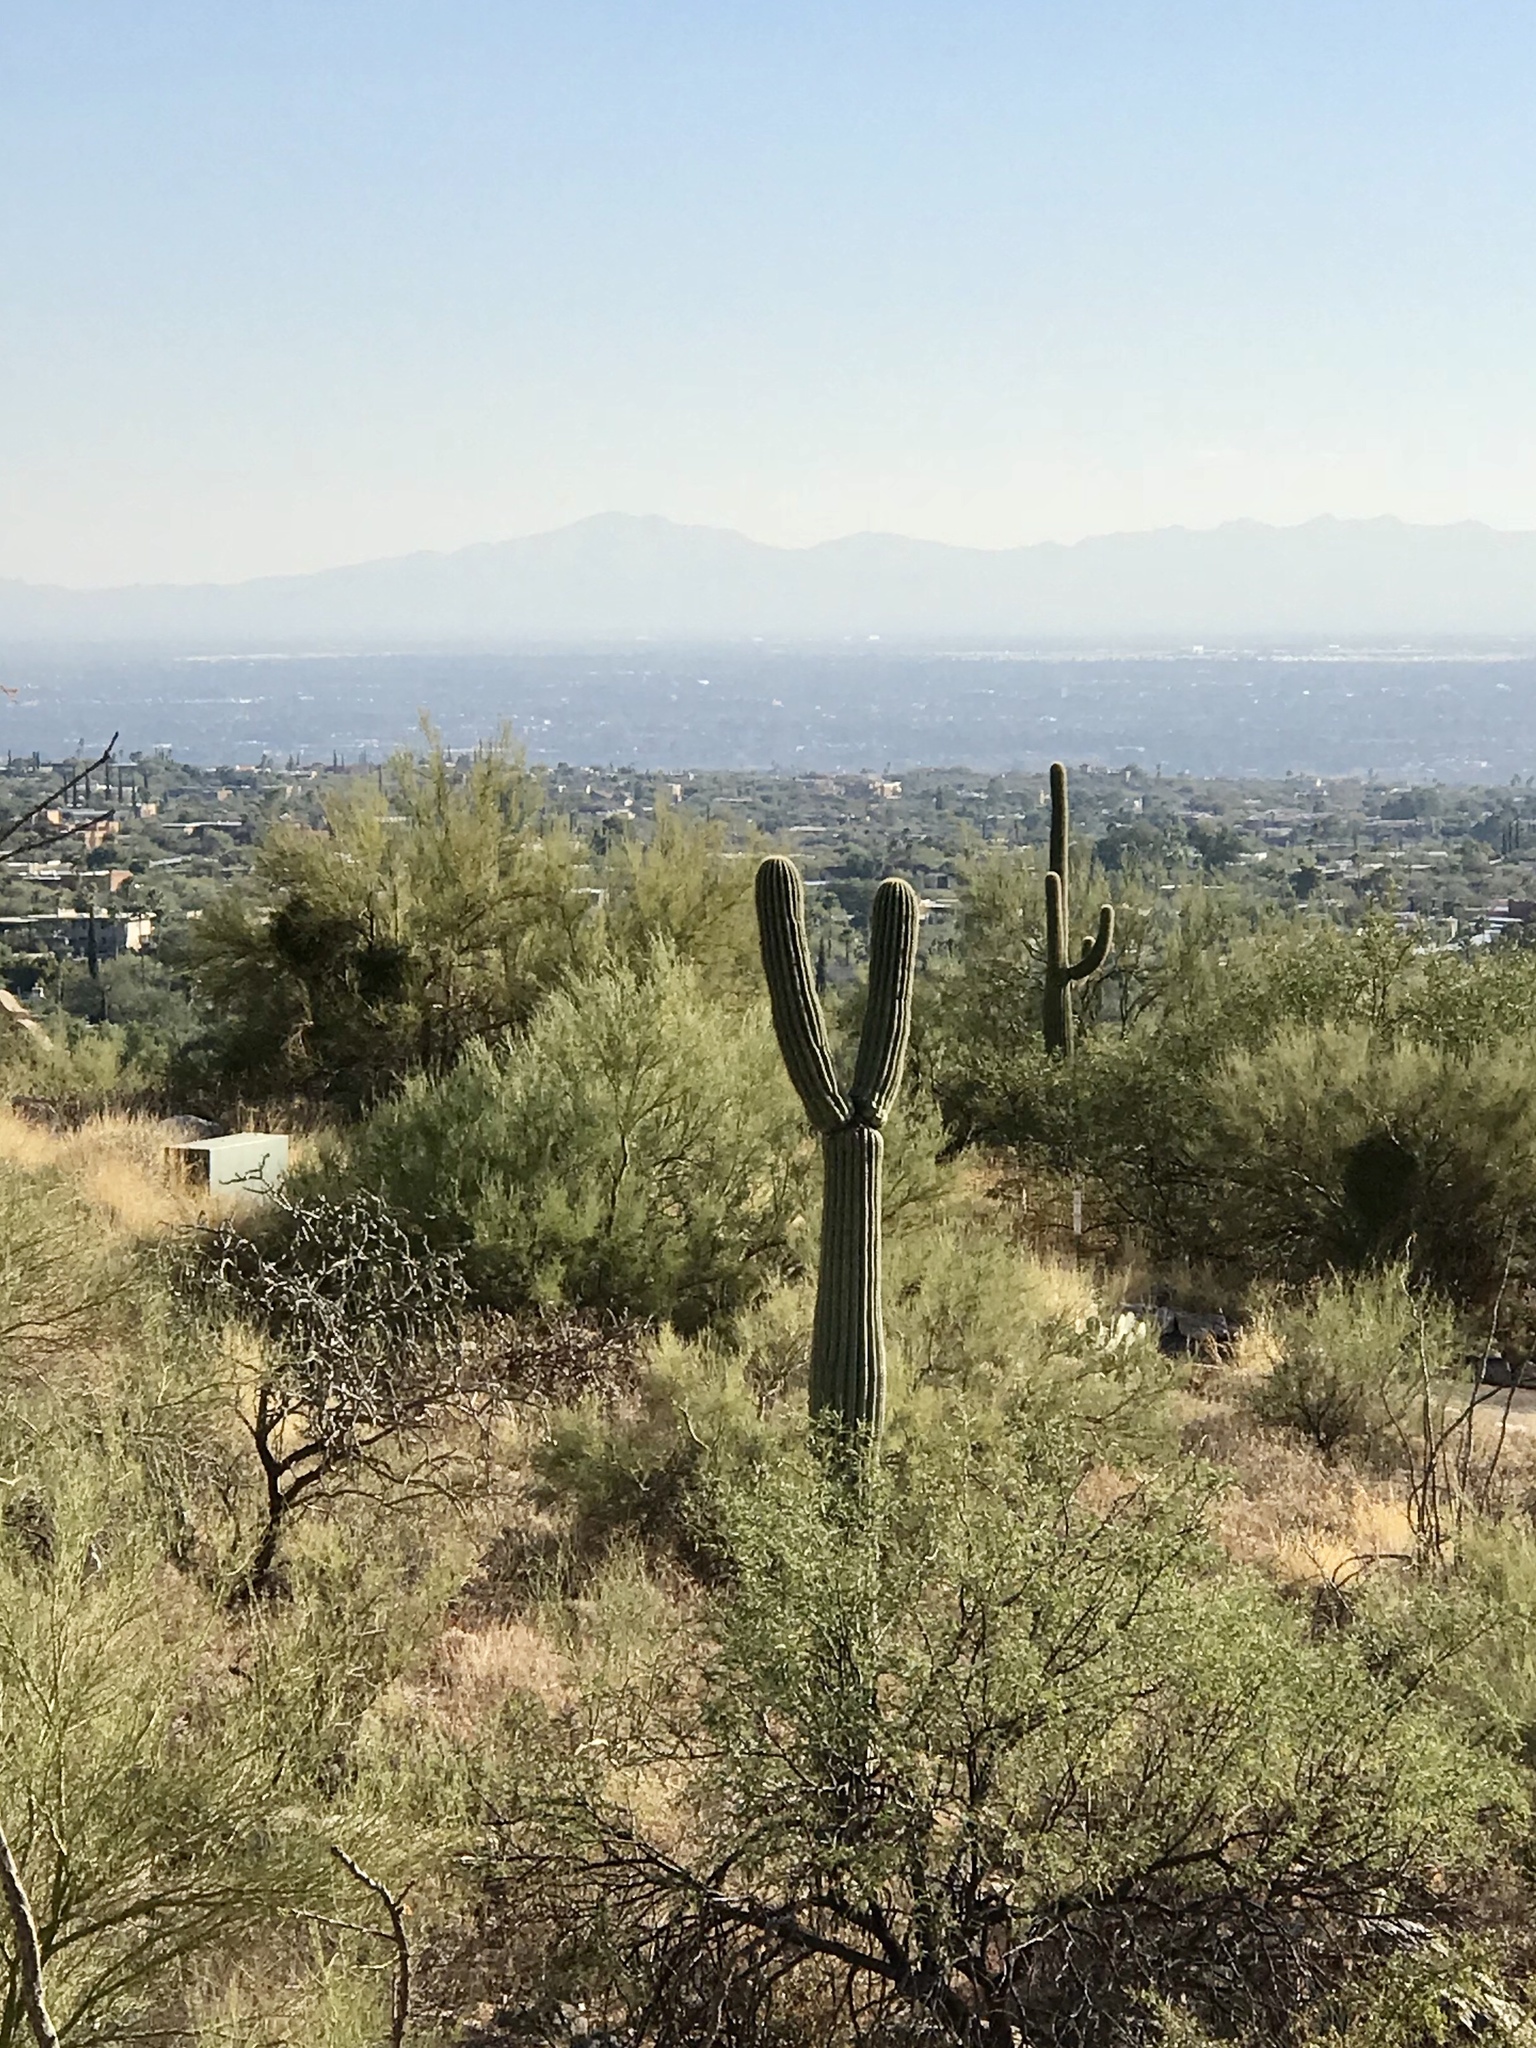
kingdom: Plantae
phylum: Tracheophyta
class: Magnoliopsida
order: Caryophyllales
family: Cactaceae
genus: Carnegiea
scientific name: Carnegiea gigantea
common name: Saguaro
